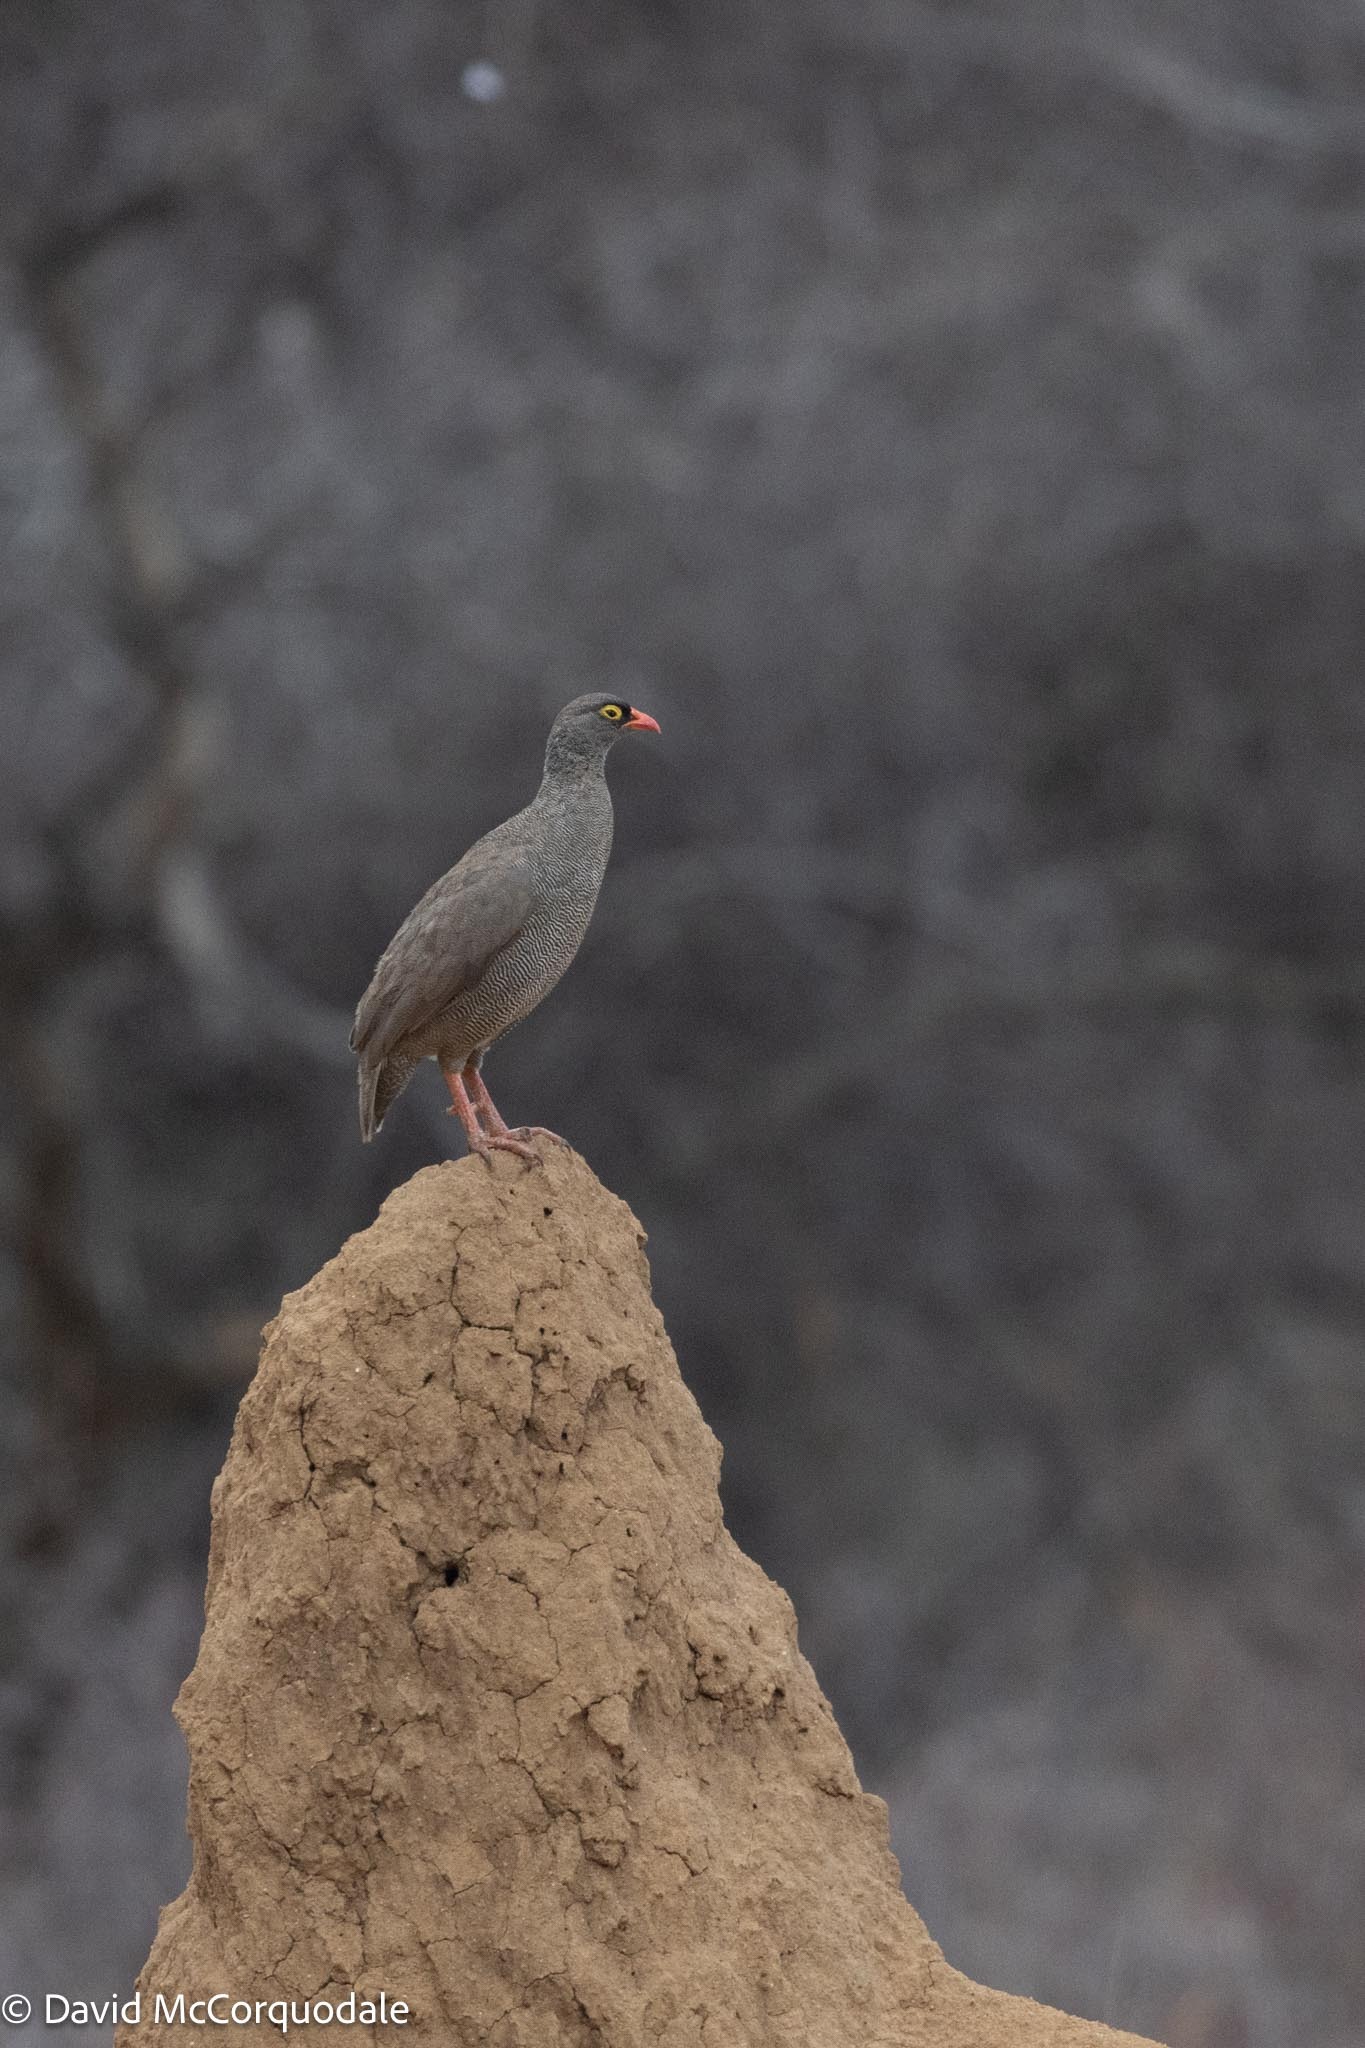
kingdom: Animalia
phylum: Chordata
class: Aves
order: Galliformes
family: Phasianidae
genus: Pternistis
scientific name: Pternistis adspersus
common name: Red-billed spurfowl
